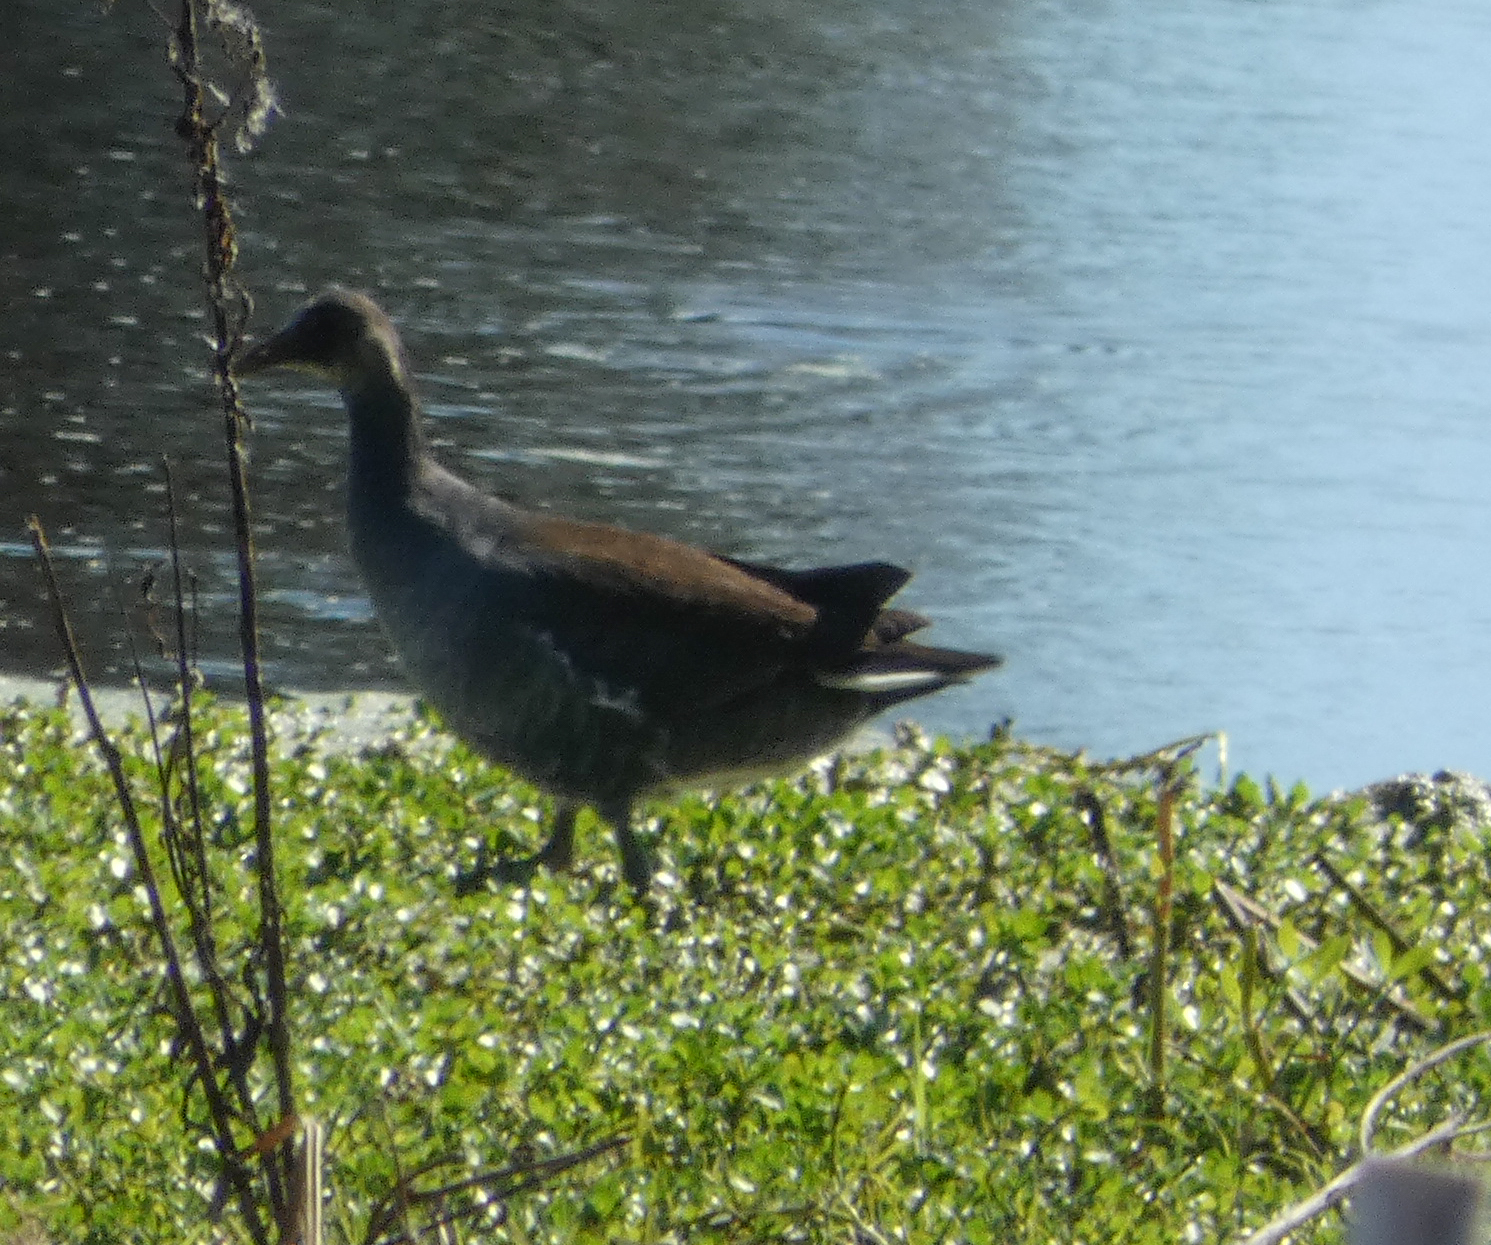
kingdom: Animalia
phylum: Chordata
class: Aves
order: Gruiformes
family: Rallidae
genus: Gallinula
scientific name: Gallinula chloropus
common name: Common moorhen
